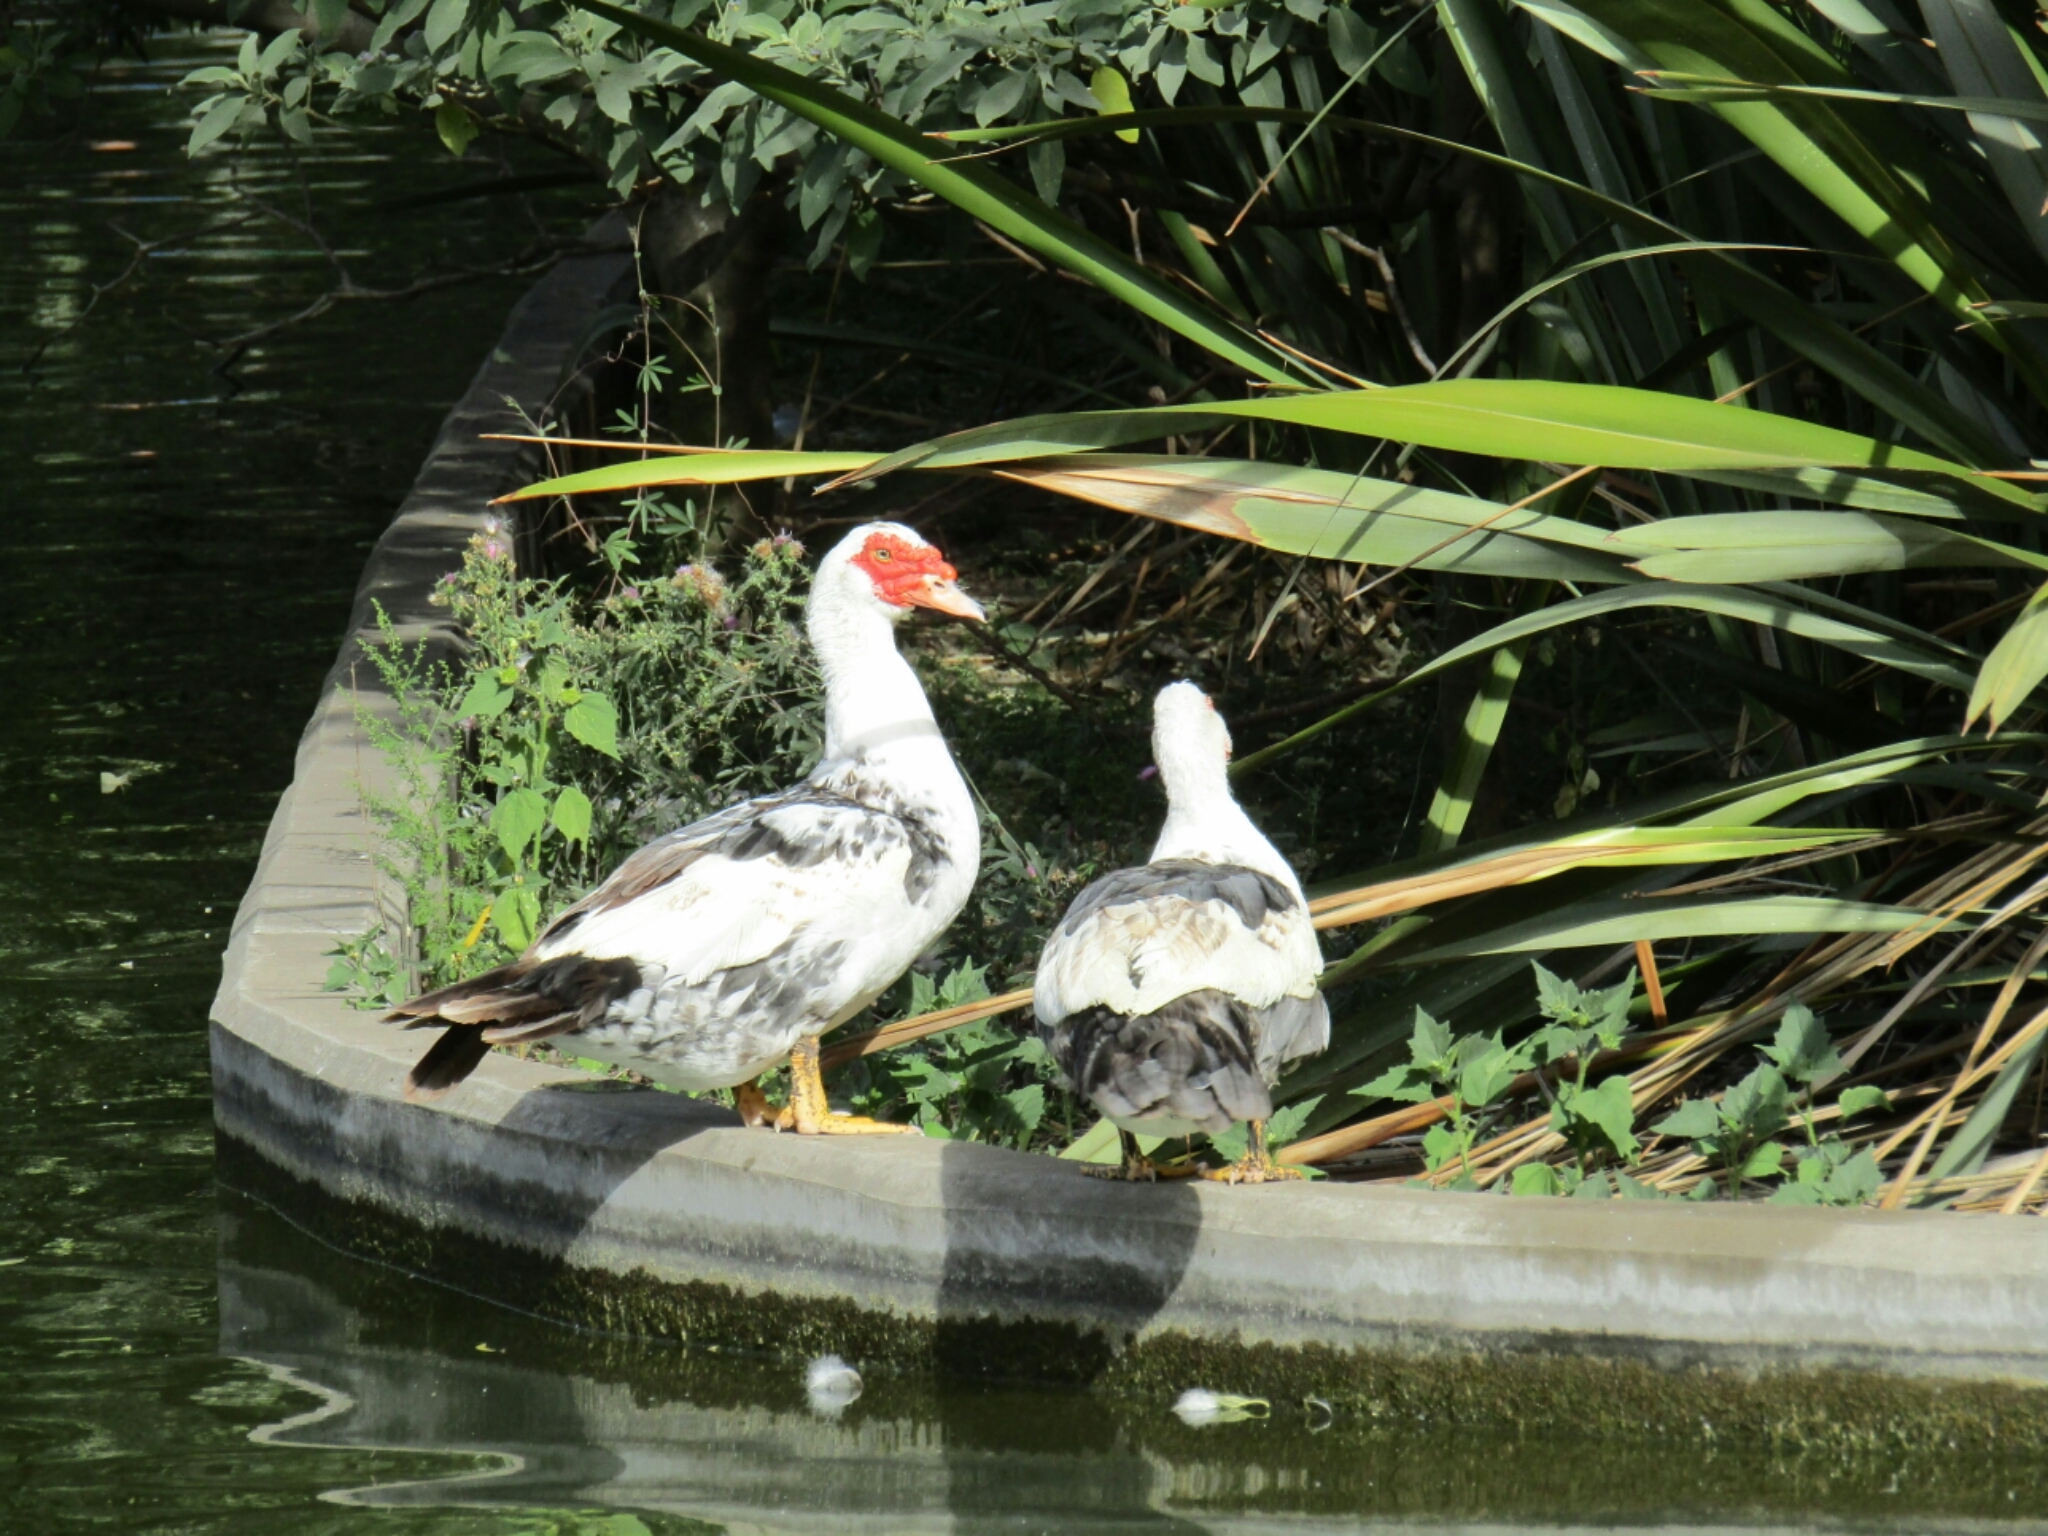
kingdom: Animalia
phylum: Chordata
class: Aves
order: Anseriformes
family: Anatidae
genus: Cairina
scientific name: Cairina moschata
